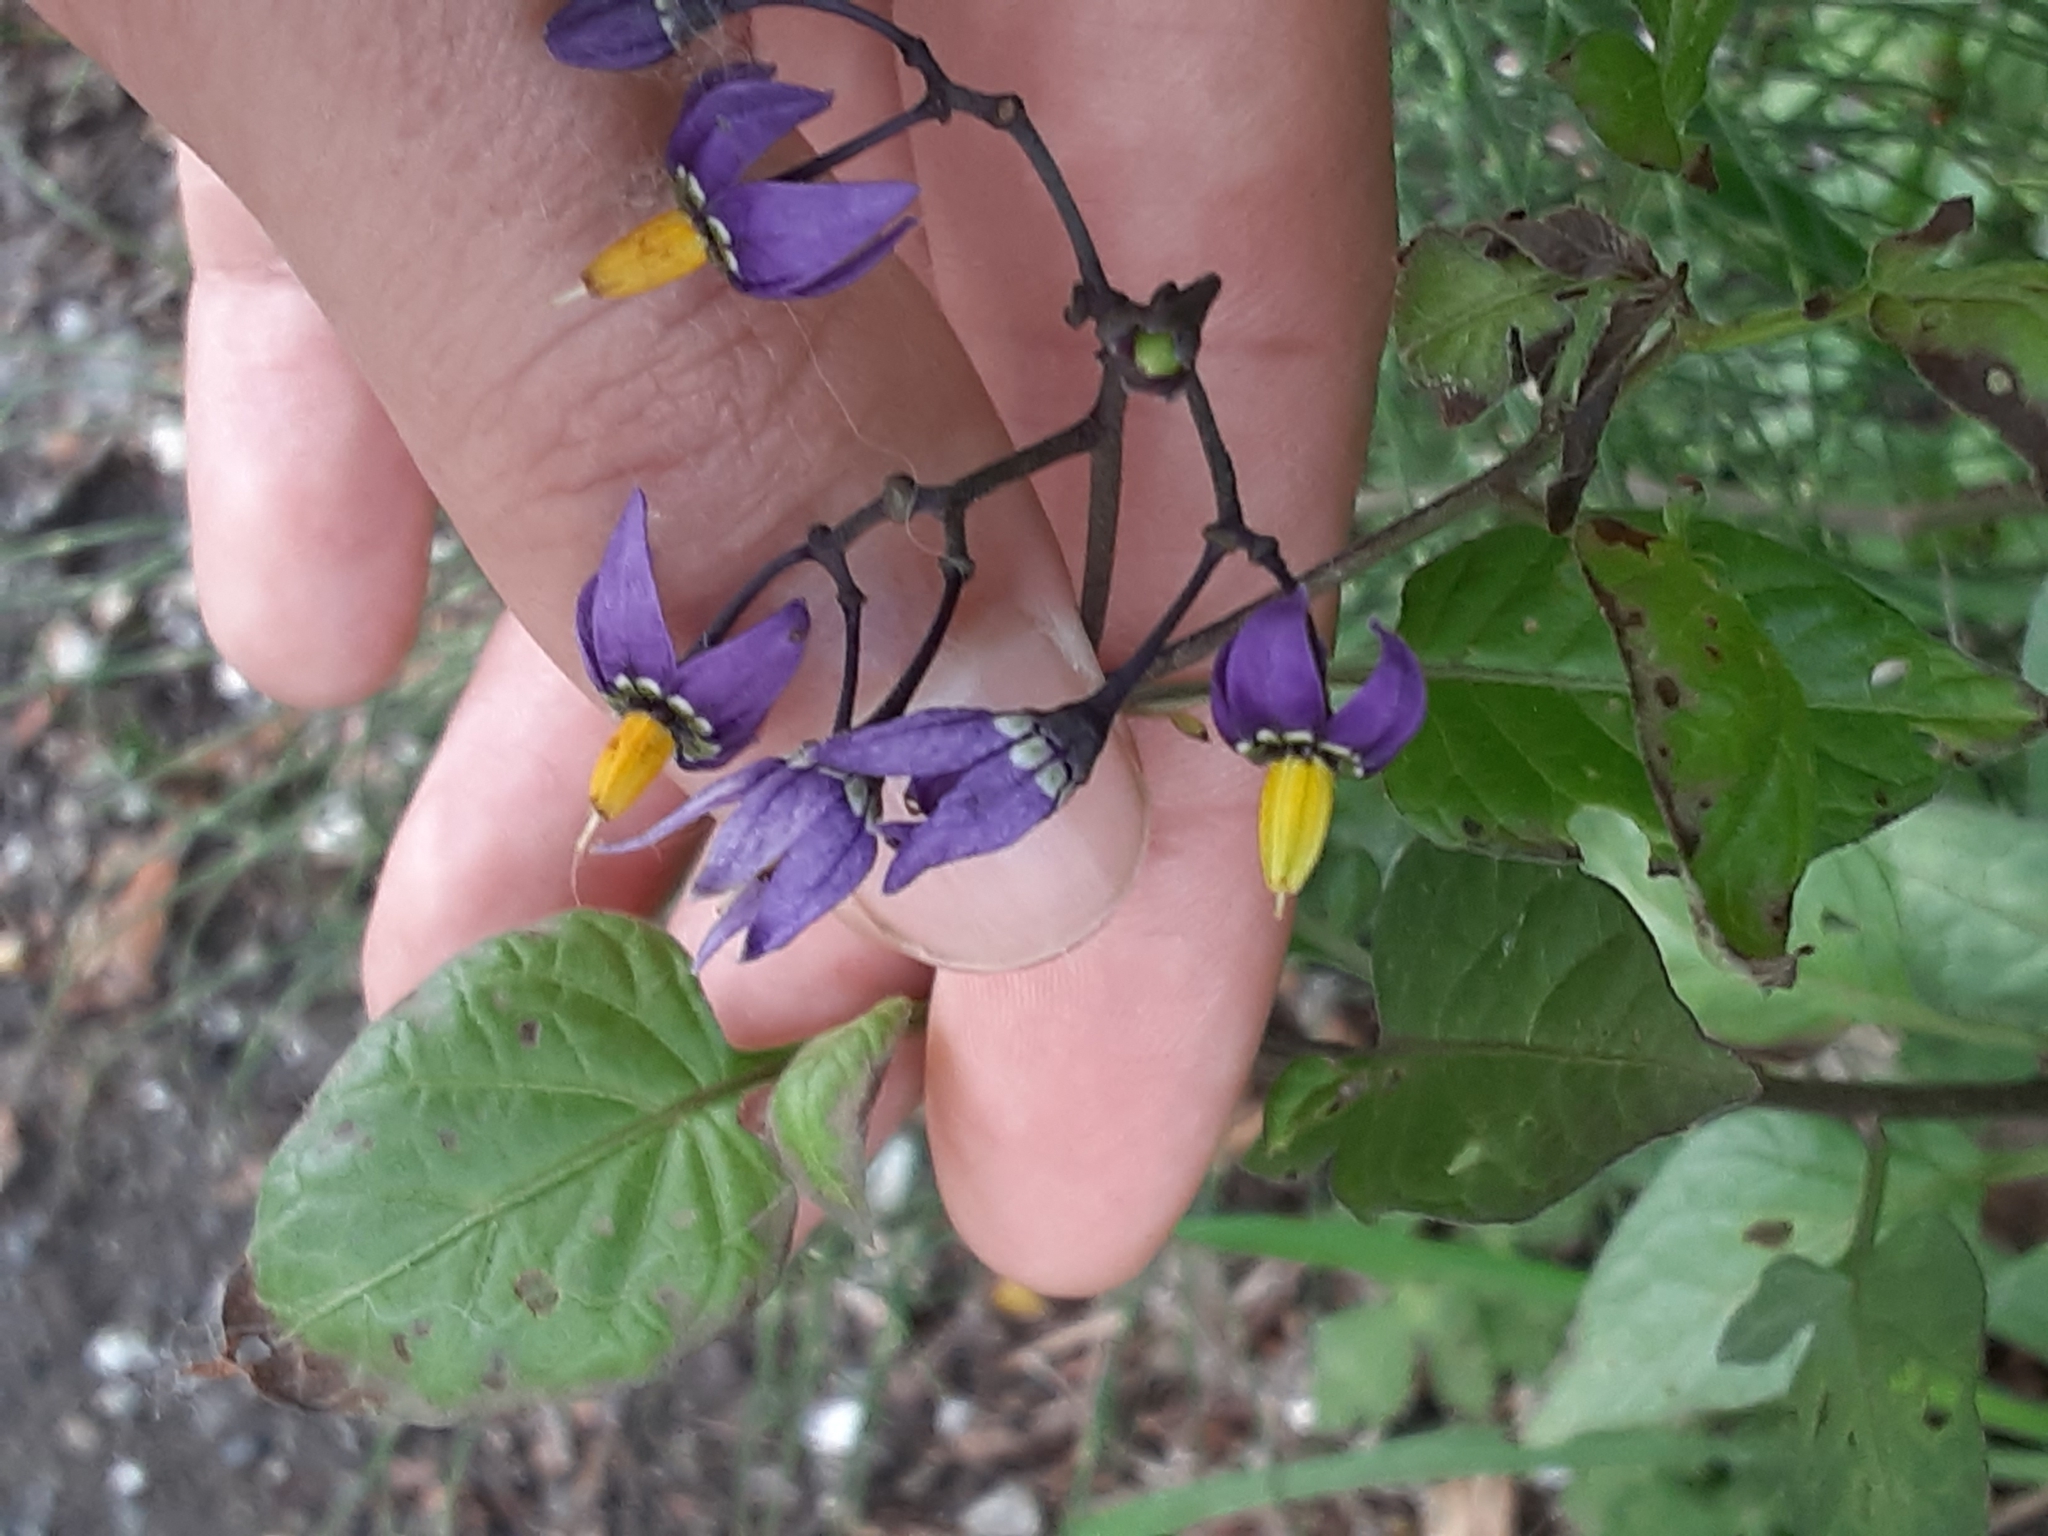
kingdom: Plantae
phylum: Tracheophyta
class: Magnoliopsida
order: Solanales
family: Solanaceae
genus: Solanum
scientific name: Solanum dulcamara
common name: Climbing nightshade
